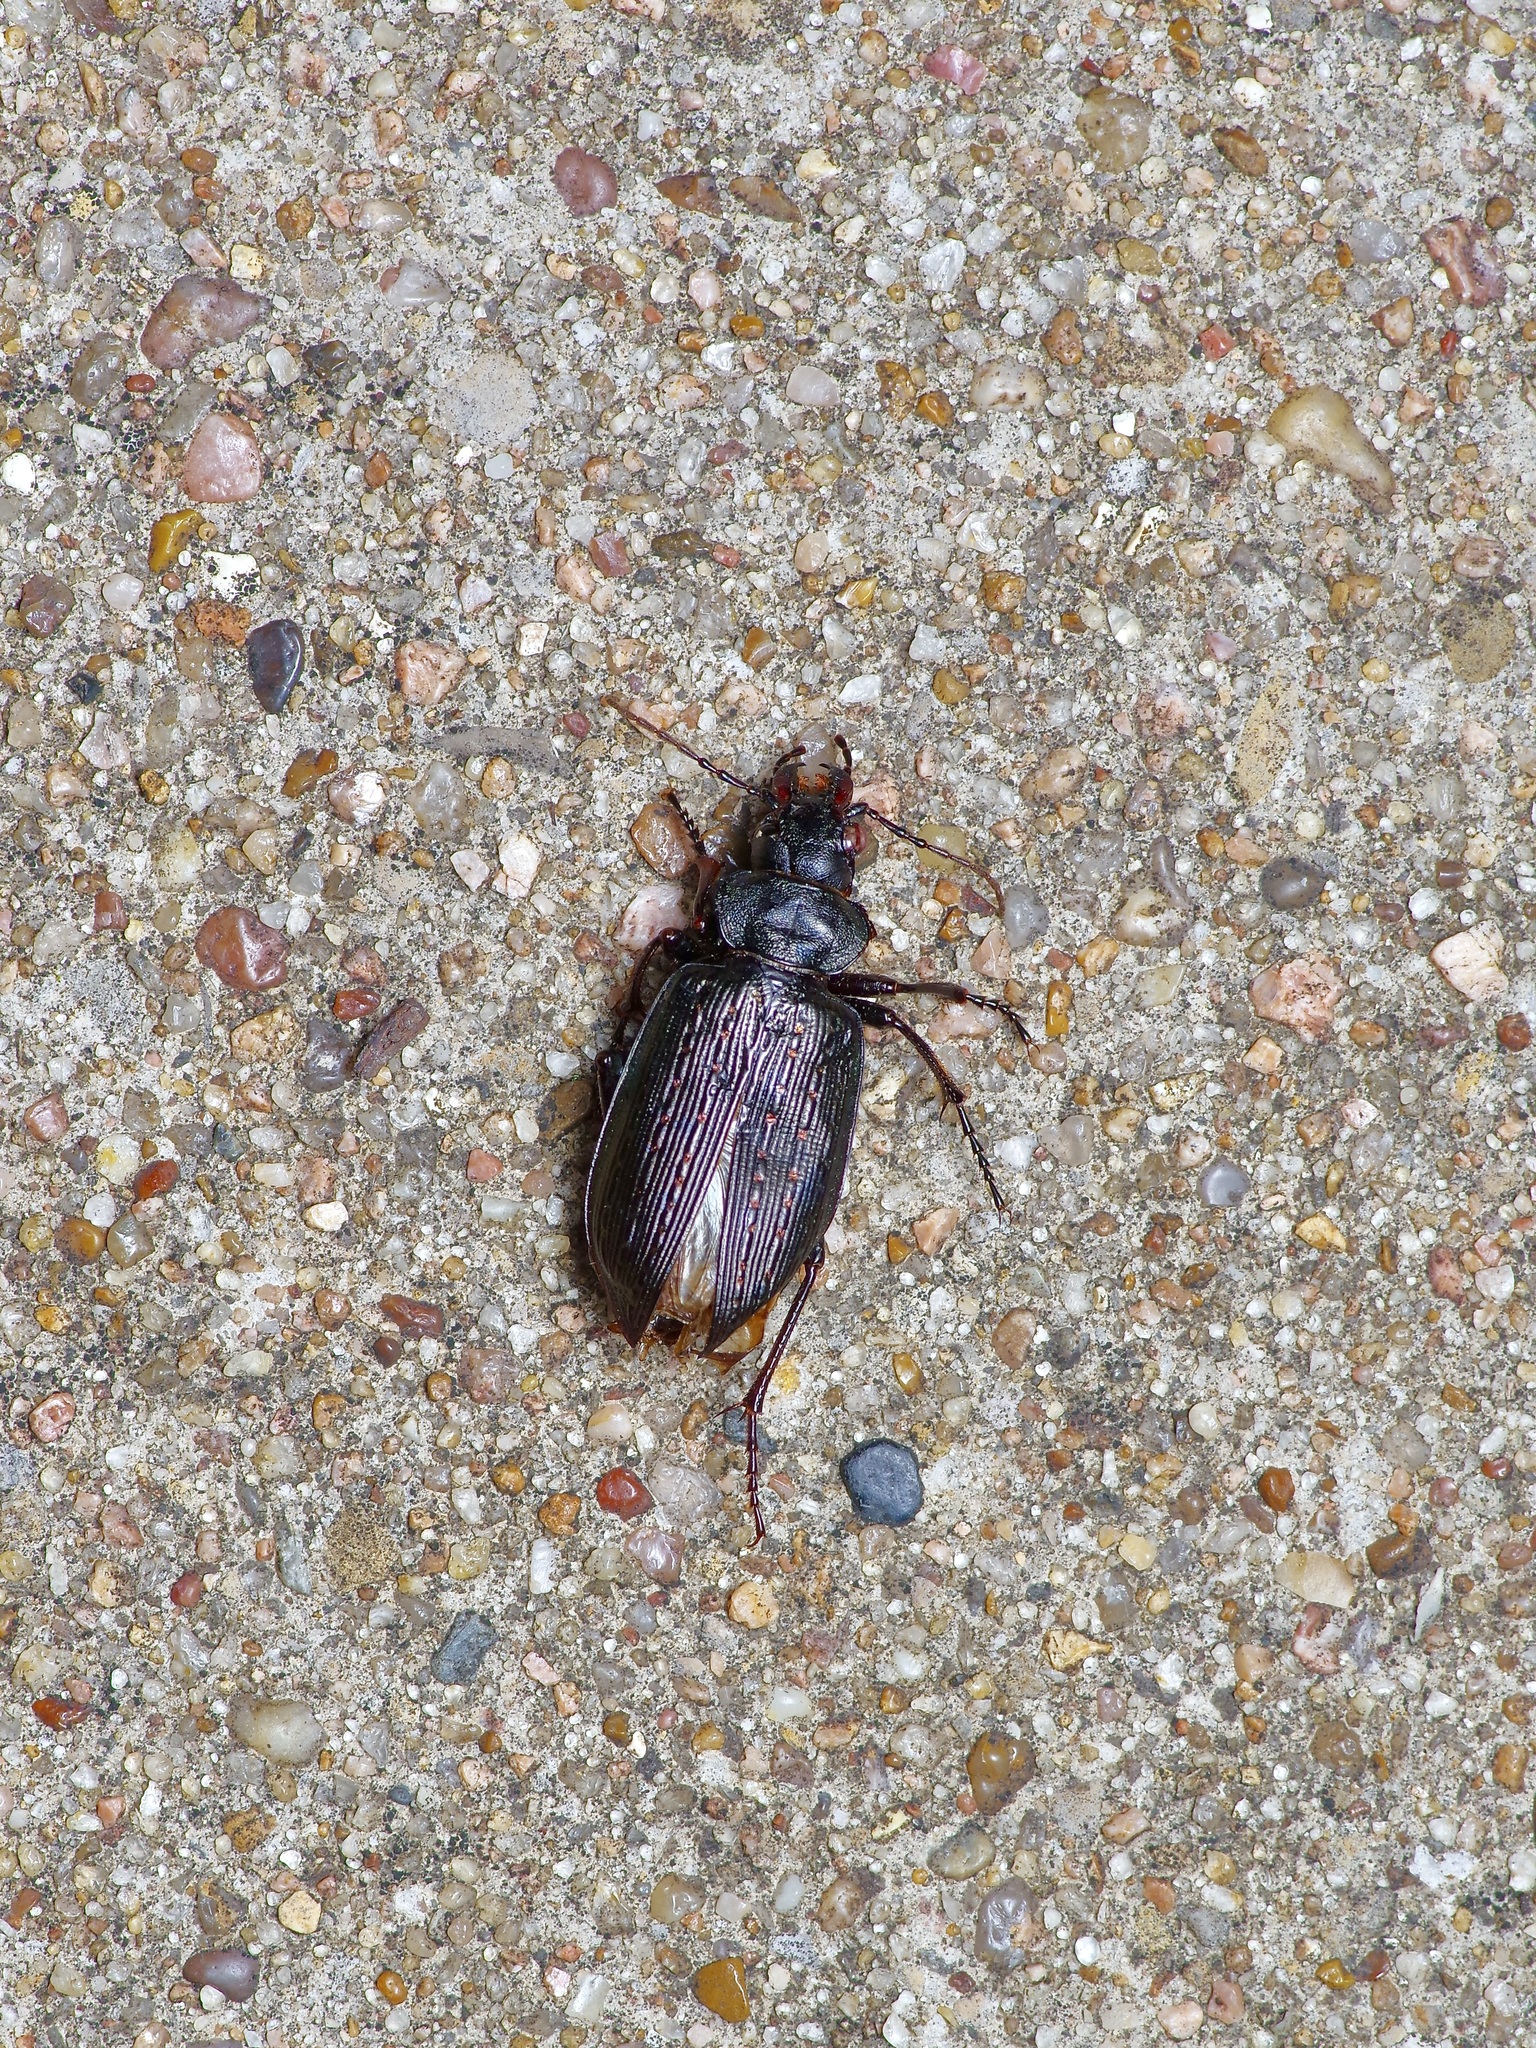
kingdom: Animalia
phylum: Arthropoda
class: Insecta
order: Coleoptera
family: Carabidae
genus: Calosoma
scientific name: Calosoma sayi
